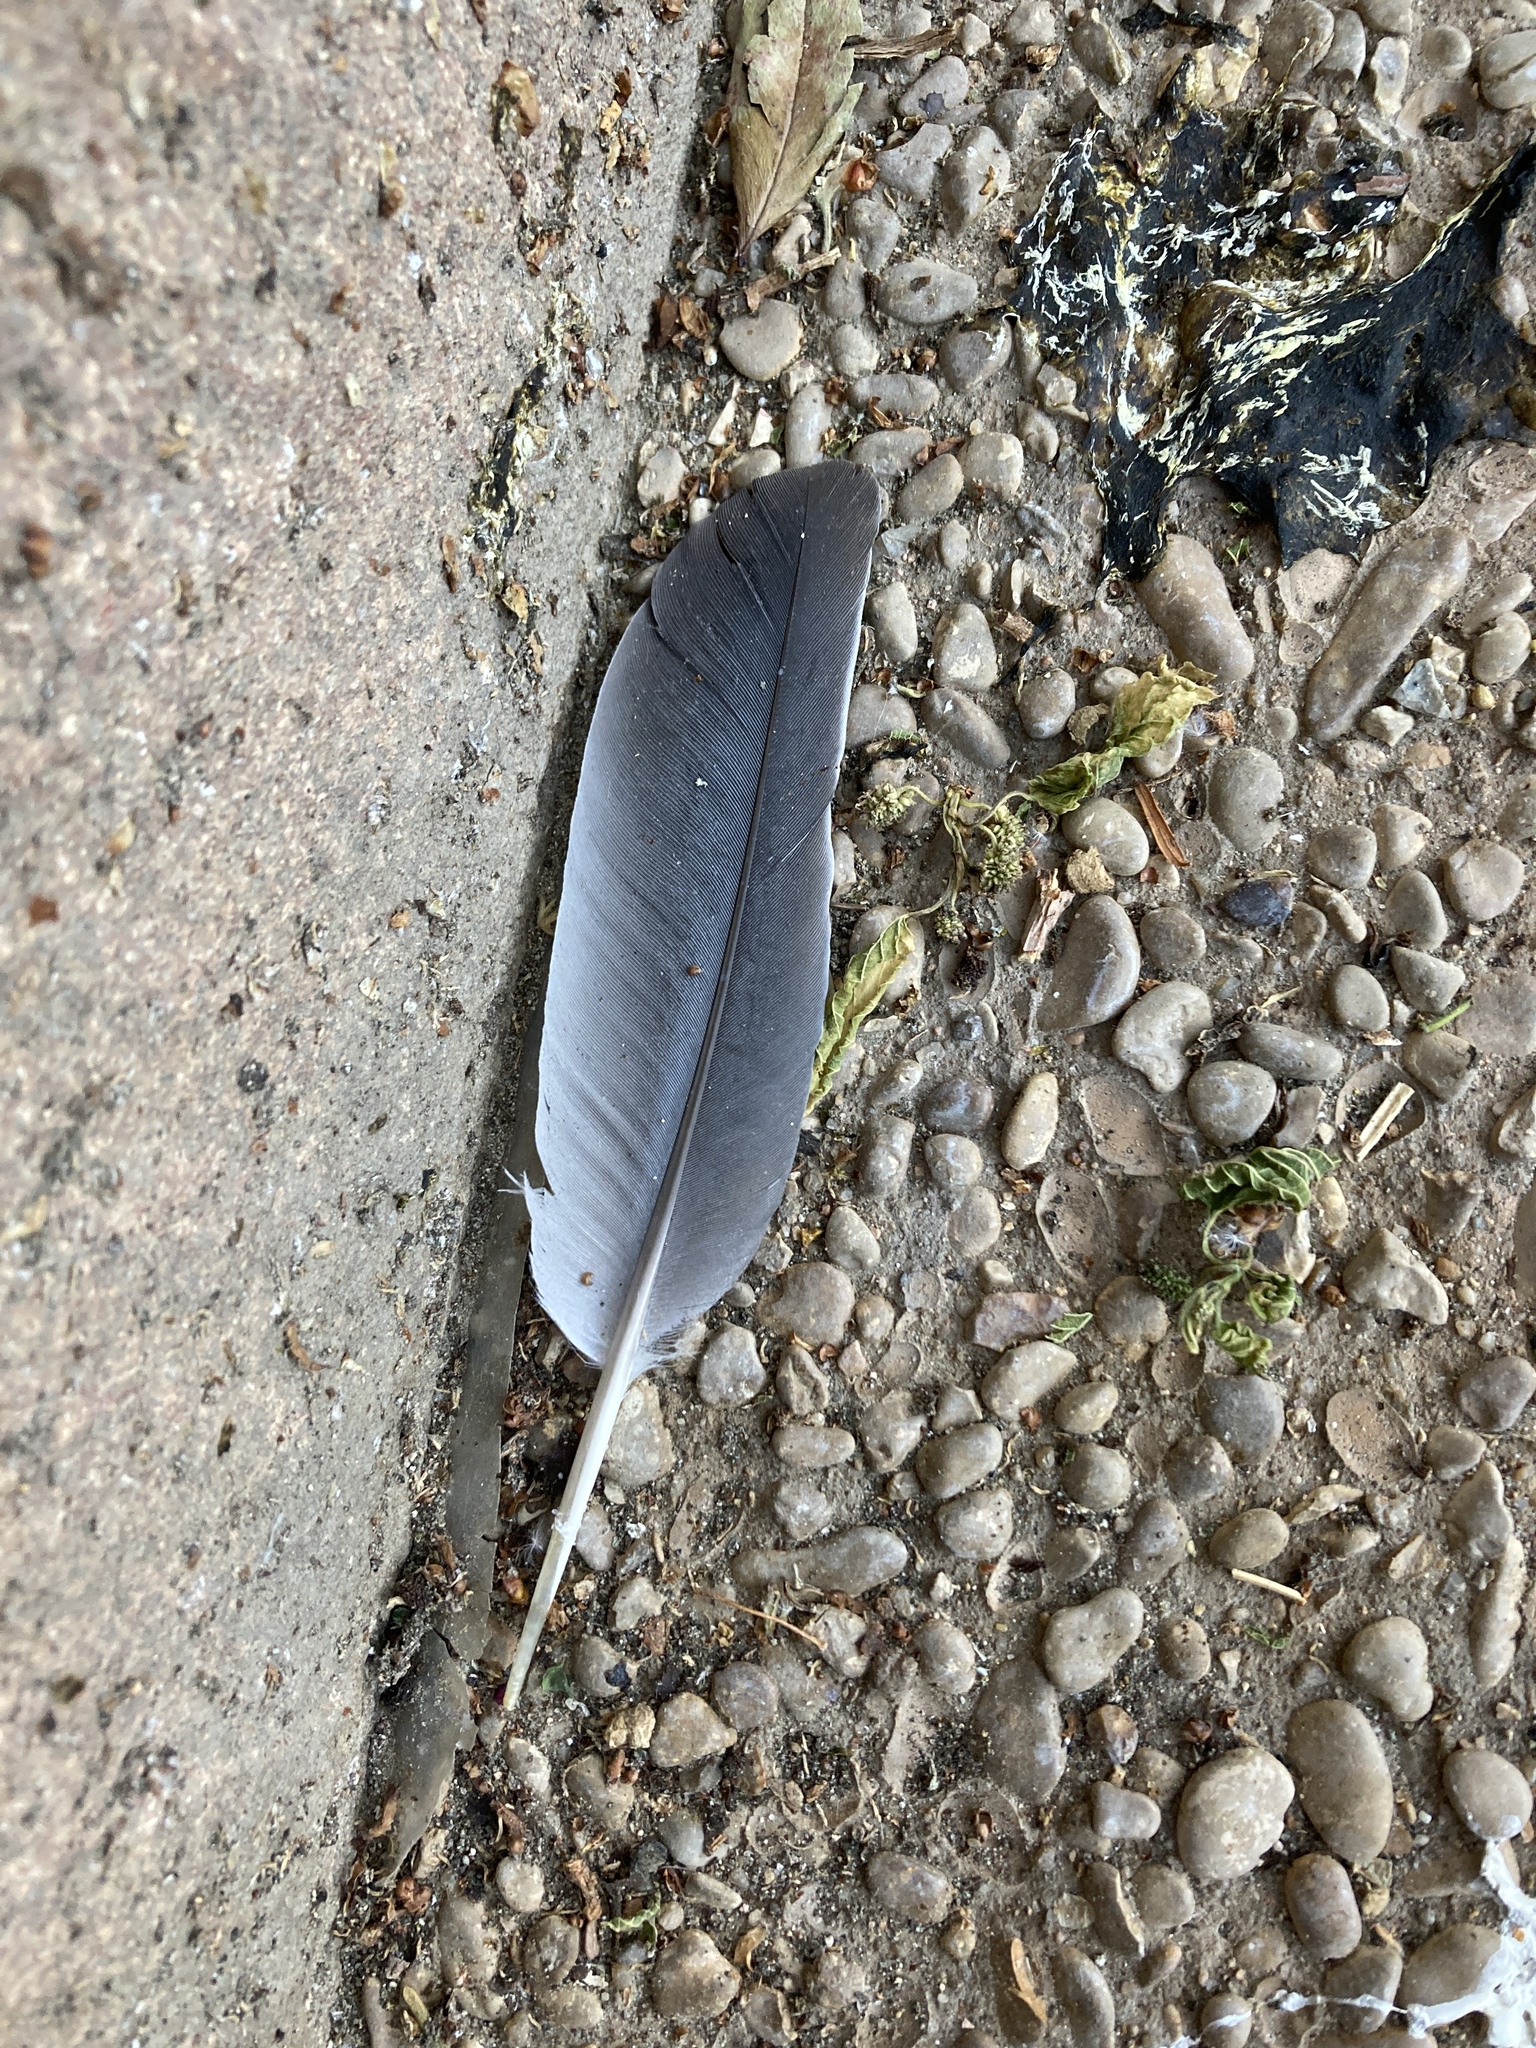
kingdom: Animalia
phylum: Chordata
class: Aves
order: Columbiformes
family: Columbidae
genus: Columba
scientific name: Columba palumbus
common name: Common wood pigeon
